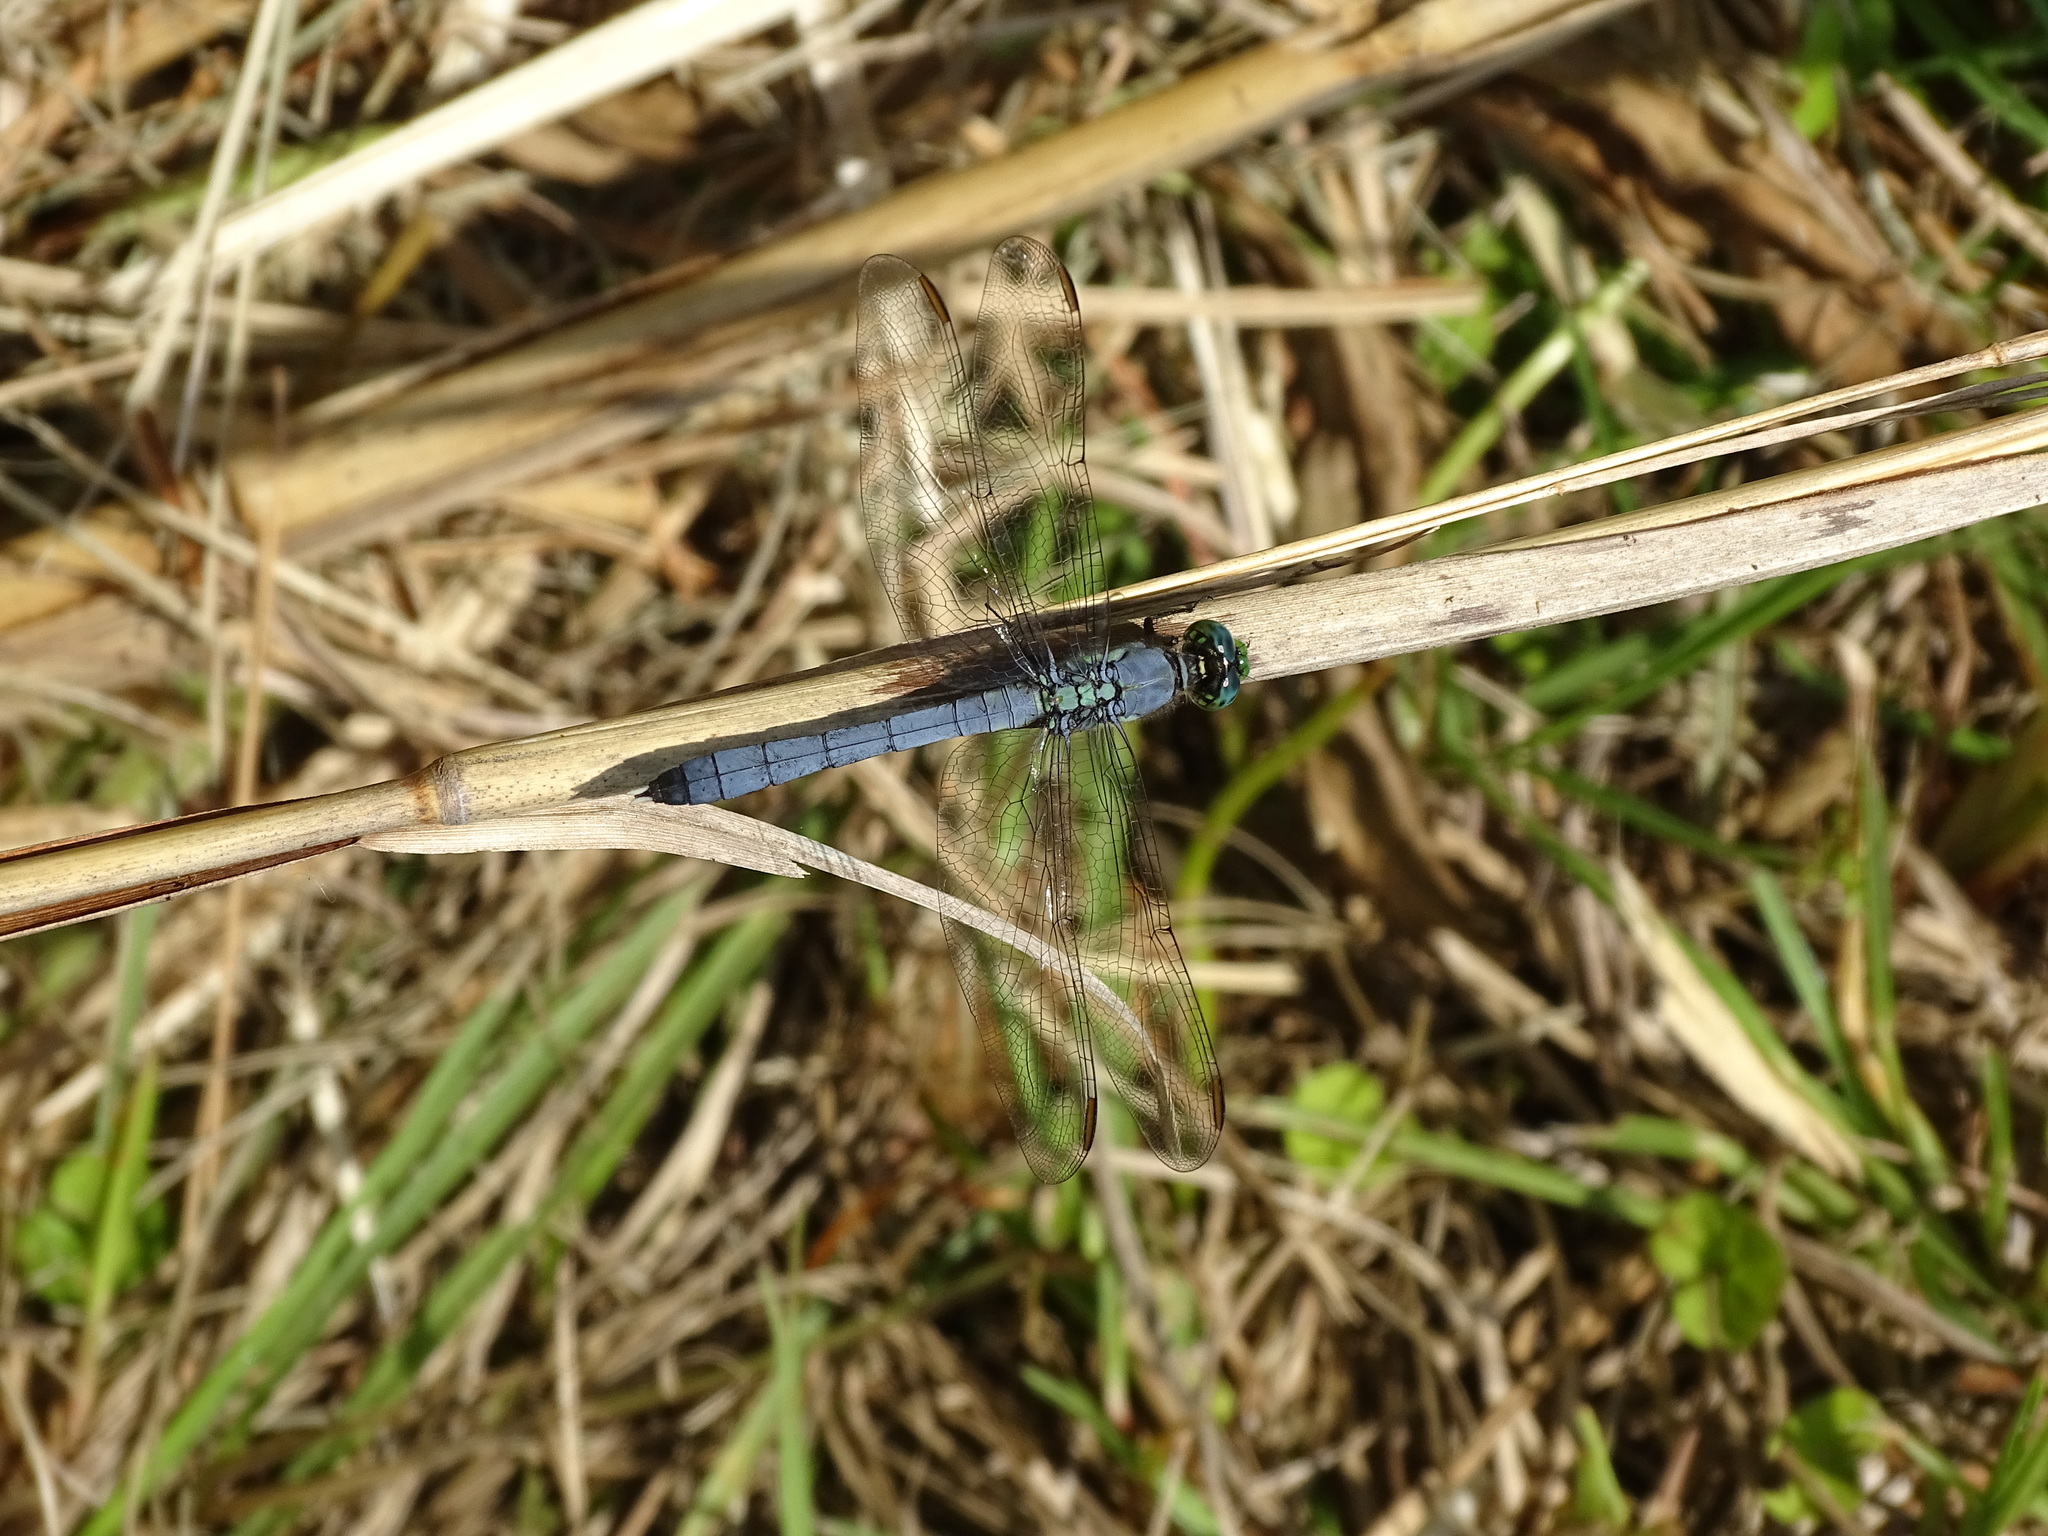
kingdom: Animalia
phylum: Arthropoda
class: Insecta
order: Odonata
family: Libellulidae
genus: Erythemis
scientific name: Erythemis simplicicollis
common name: Eastern pondhawk
